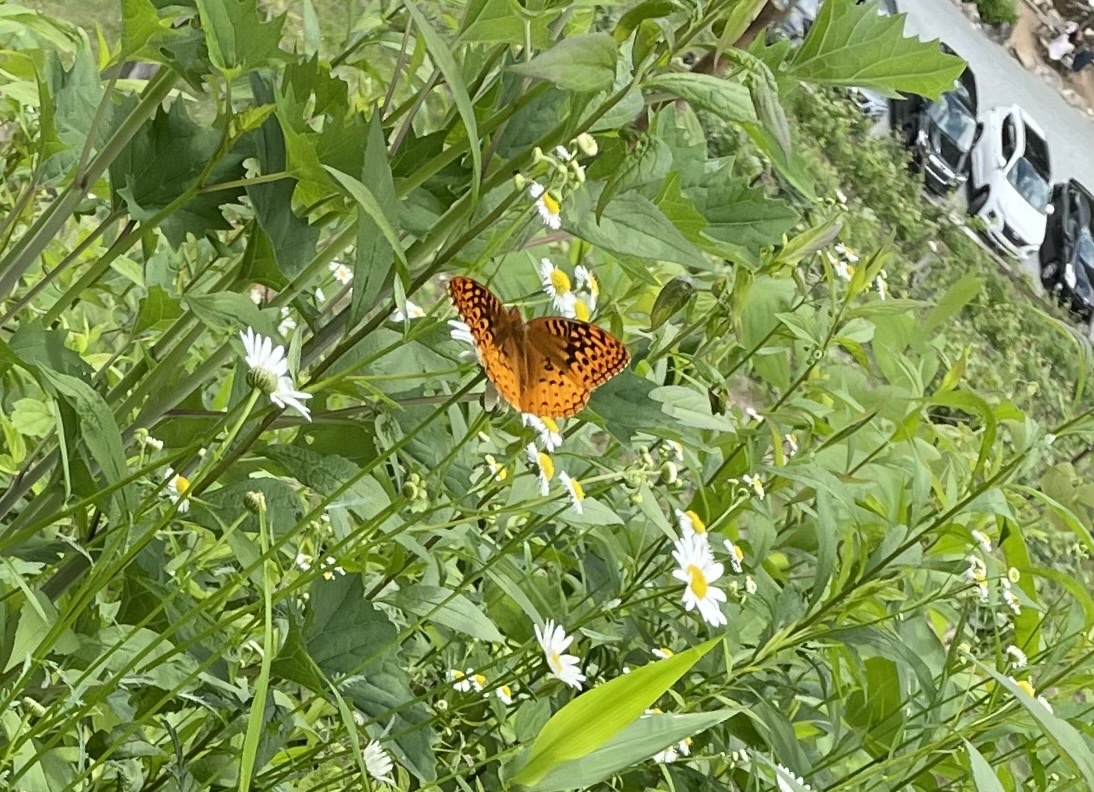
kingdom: Animalia
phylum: Arthropoda
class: Insecta
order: Lepidoptera
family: Nymphalidae
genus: Speyeria
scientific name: Speyeria cybele
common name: Great spangled fritillary
